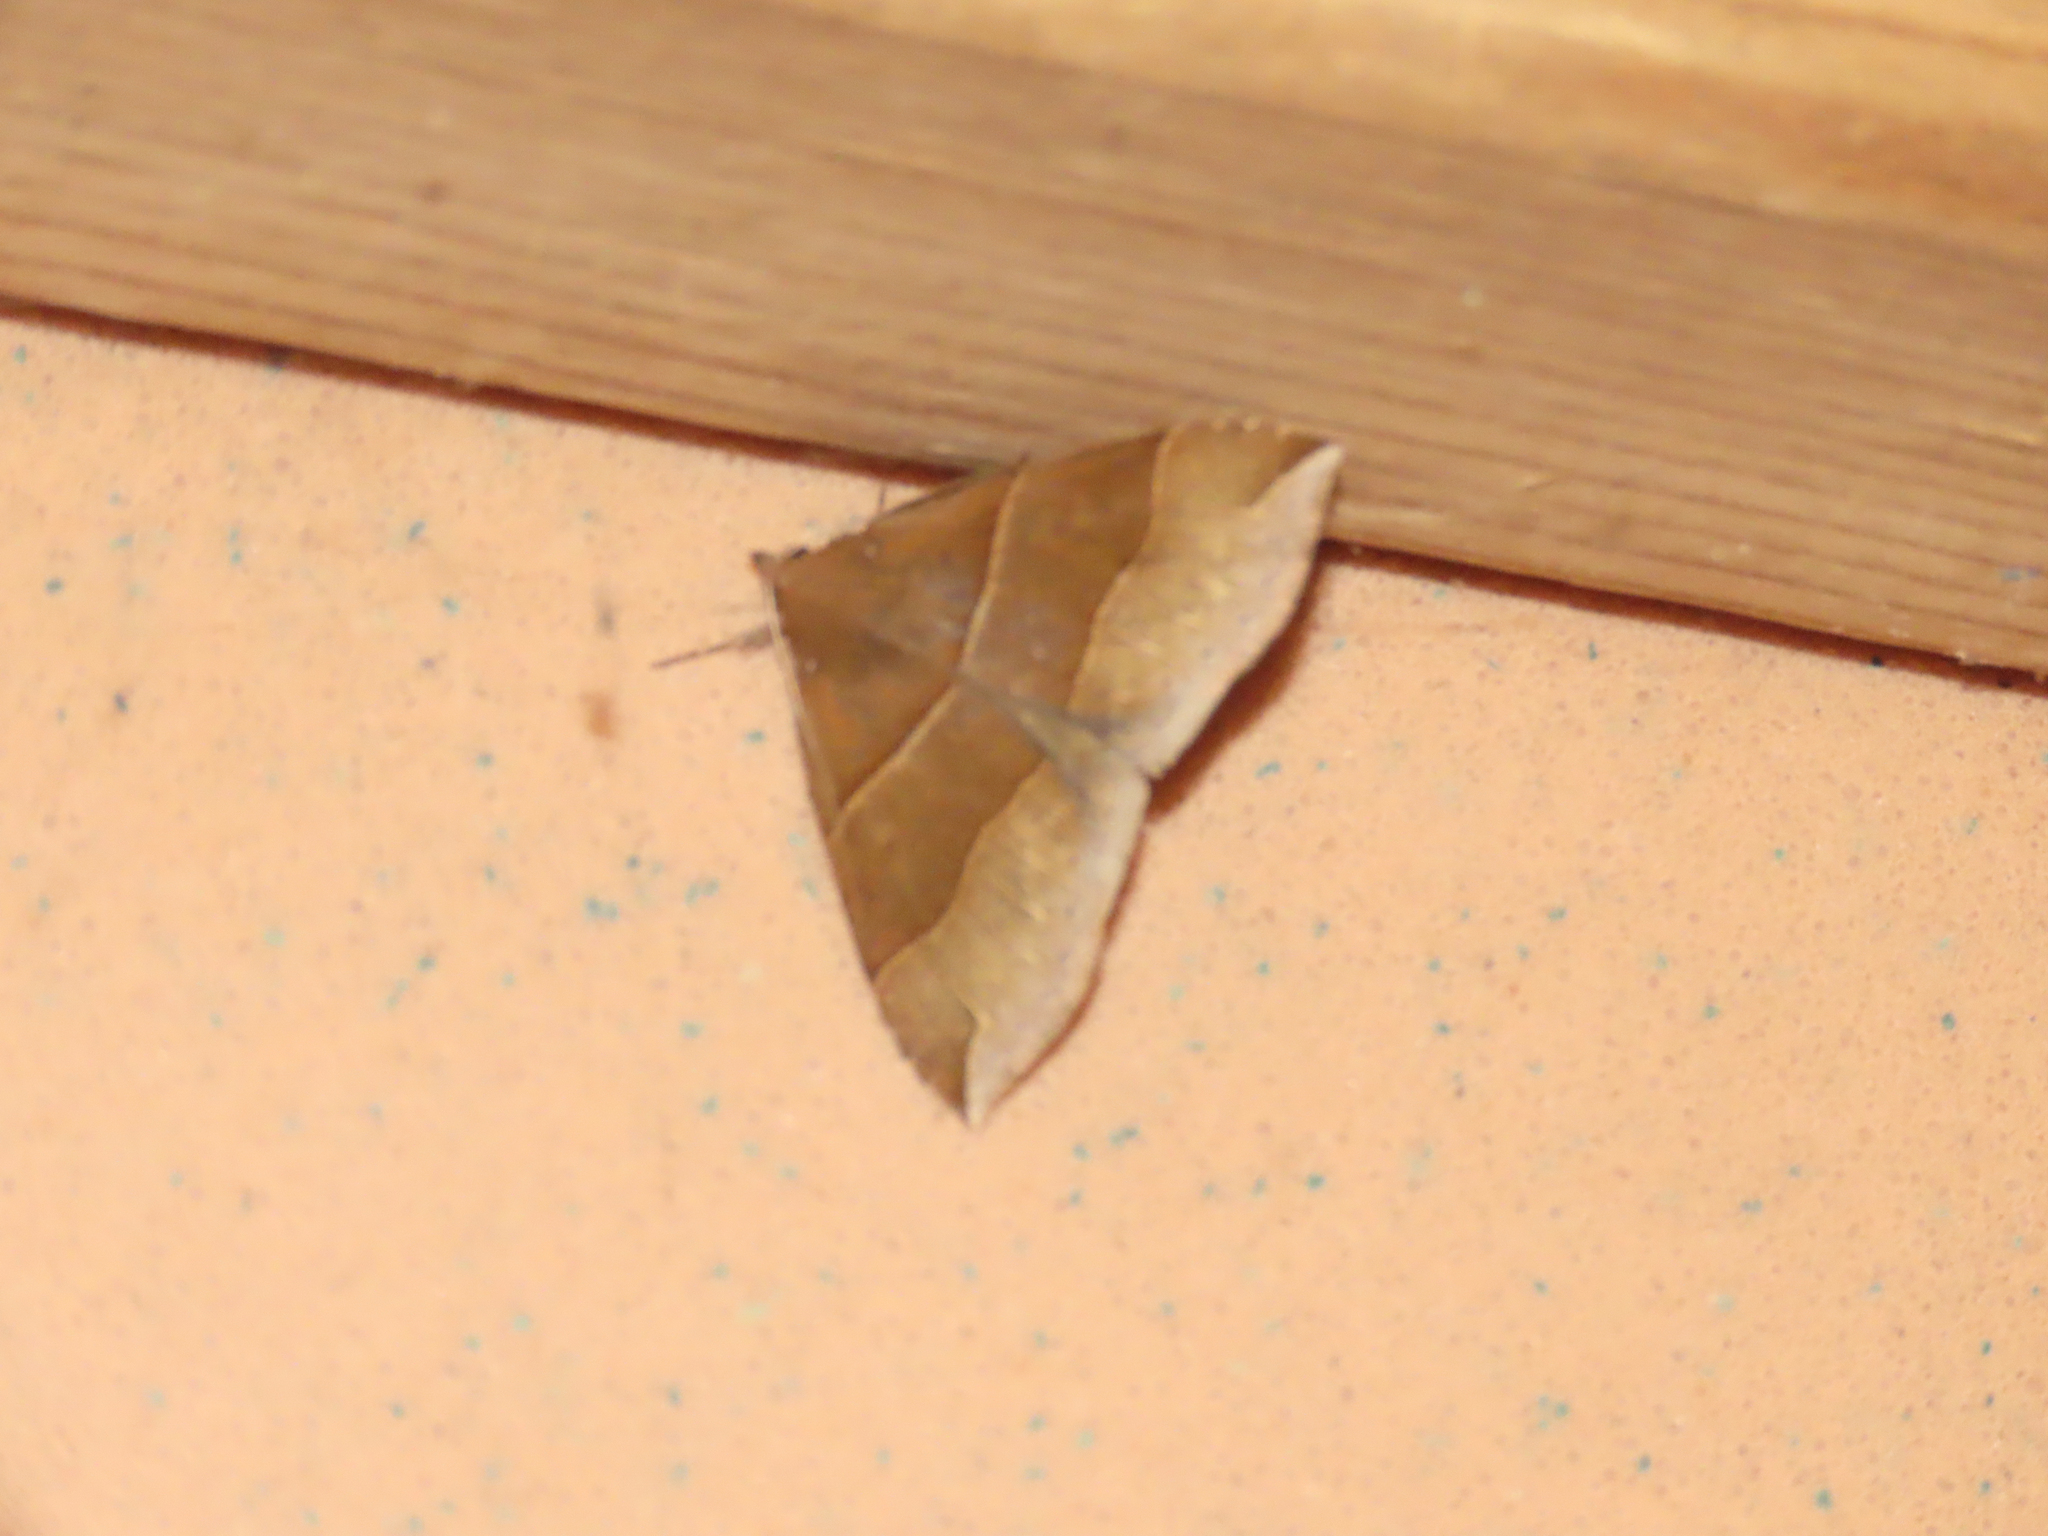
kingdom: Animalia
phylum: Arthropoda
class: Insecta
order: Lepidoptera
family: Erebidae
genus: Parallelia
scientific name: Parallelia bistriaris
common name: Maple looper moth
